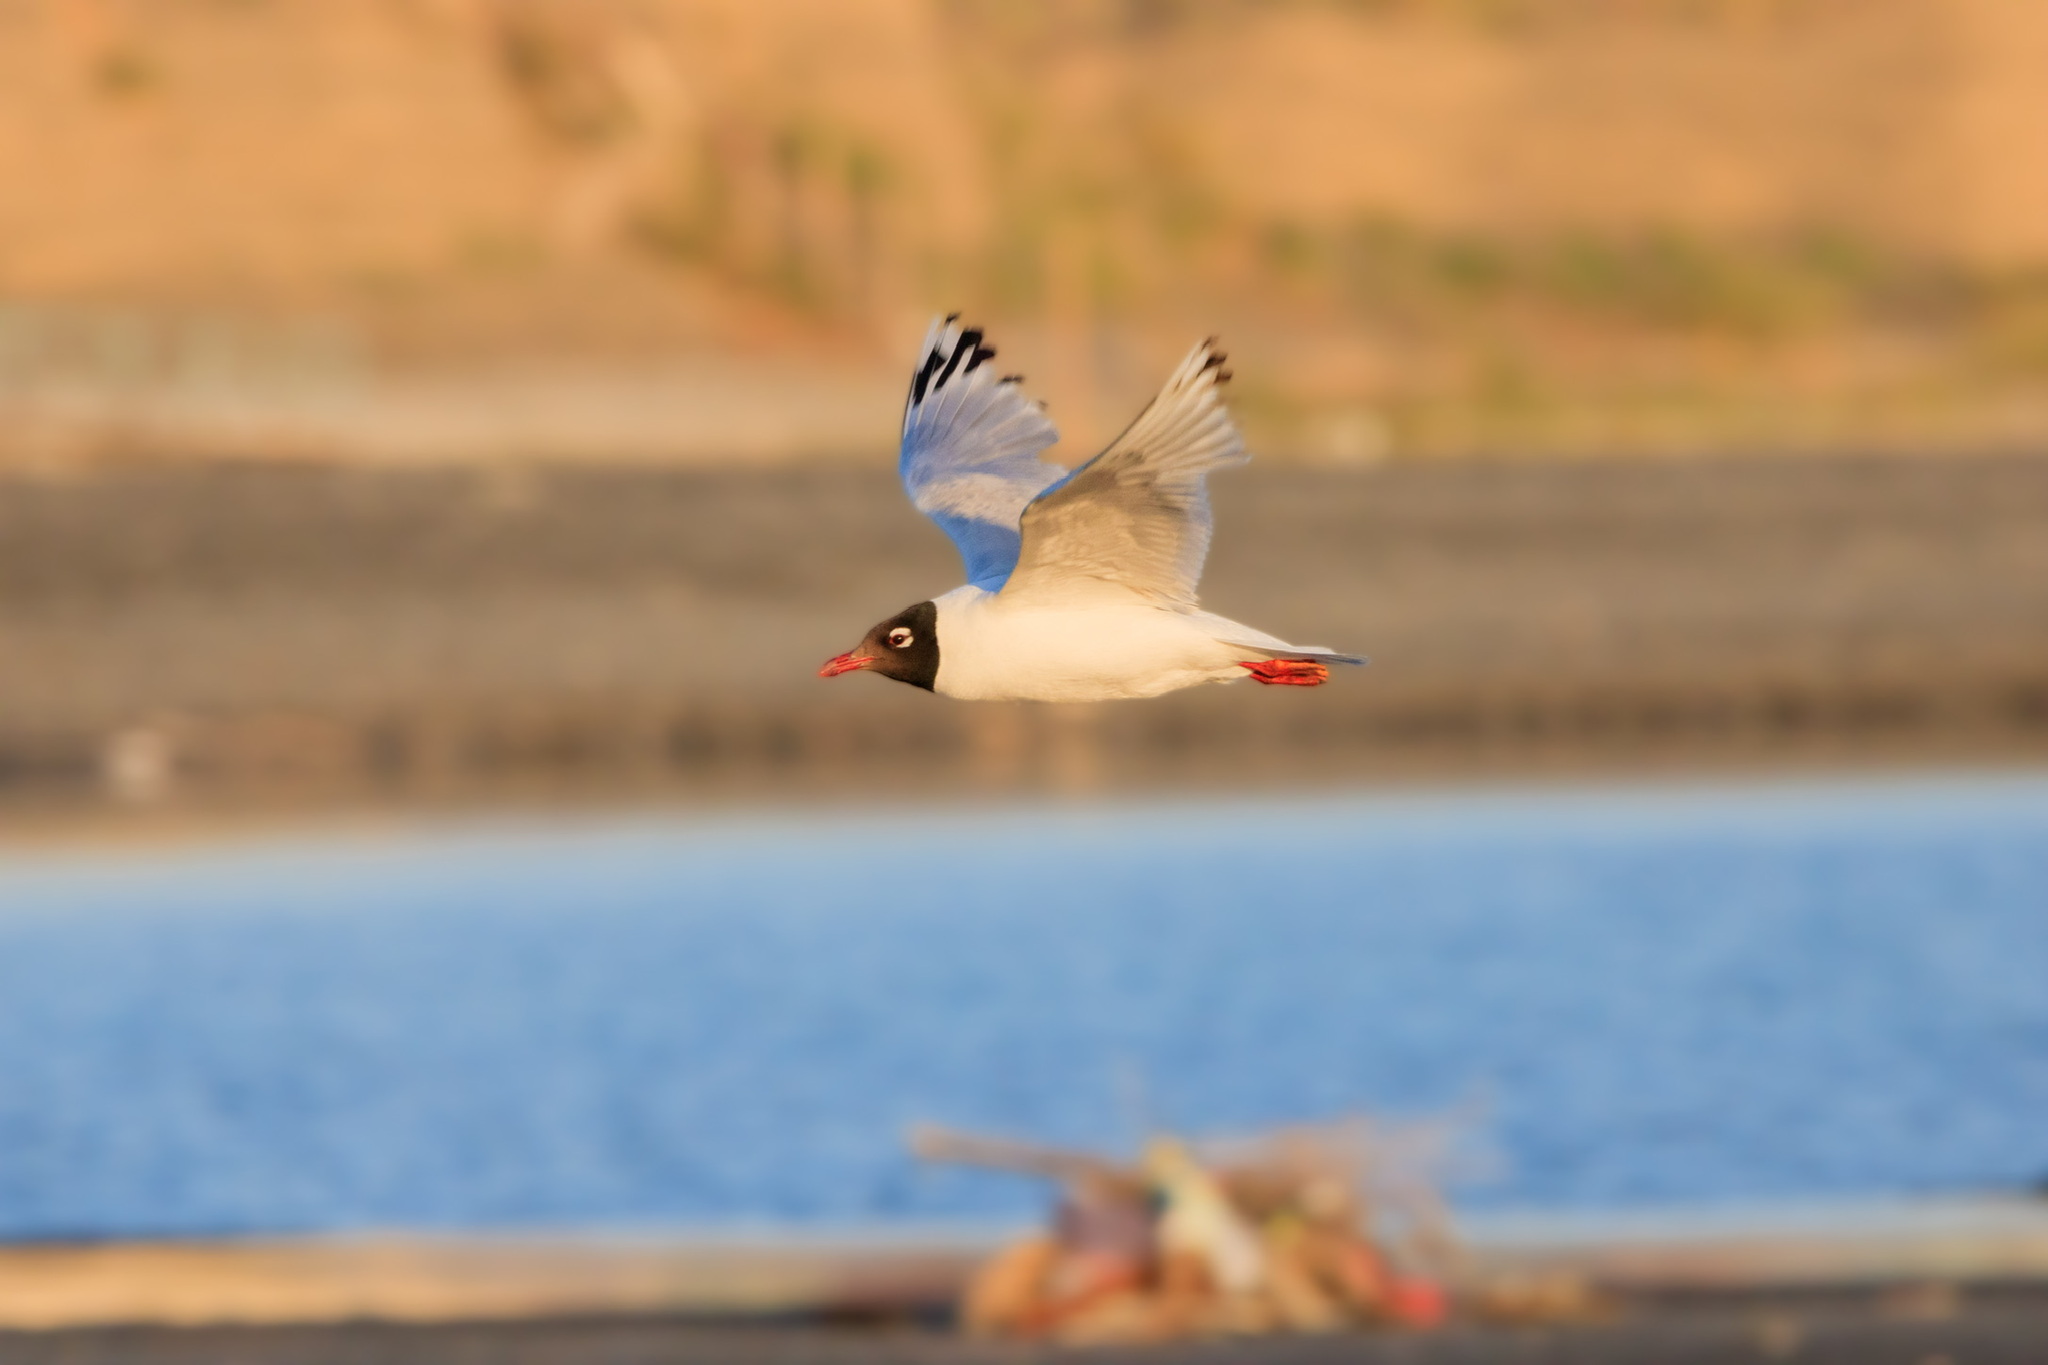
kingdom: Animalia
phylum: Chordata
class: Aves
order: Charadriiformes
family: Laridae
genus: Ichthyaetus
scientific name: Ichthyaetus relictus
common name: Relict gull
